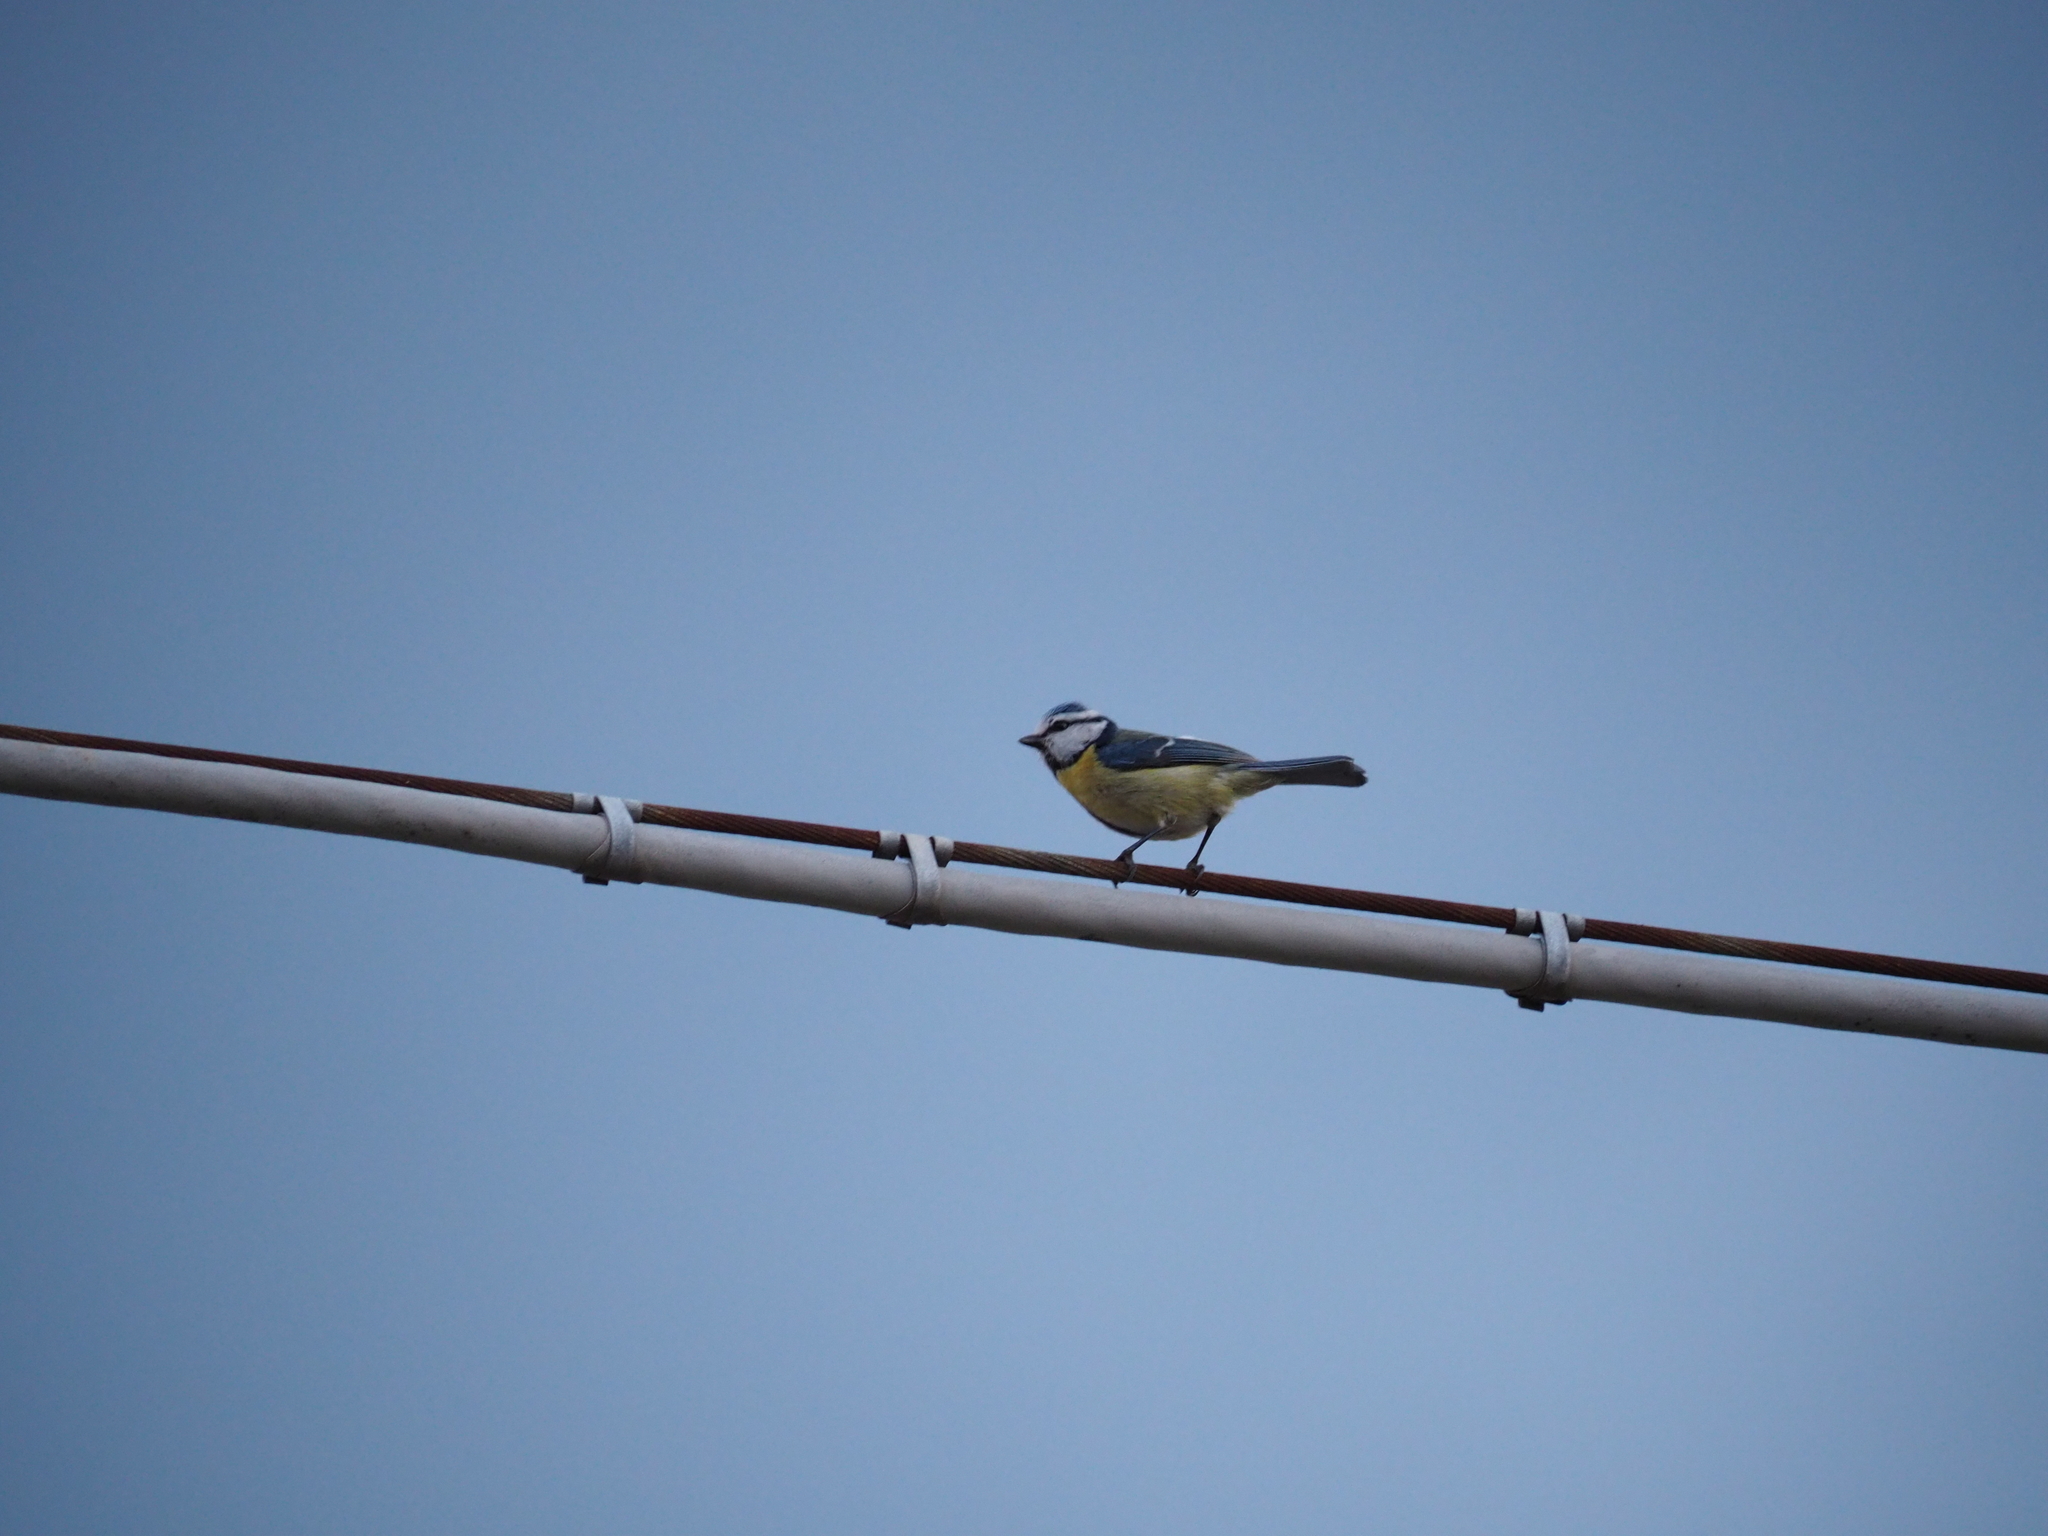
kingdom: Animalia
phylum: Chordata
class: Aves
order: Passeriformes
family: Paridae
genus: Cyanistes
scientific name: Cyanistes caeruleus
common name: Eurasian blue tit
